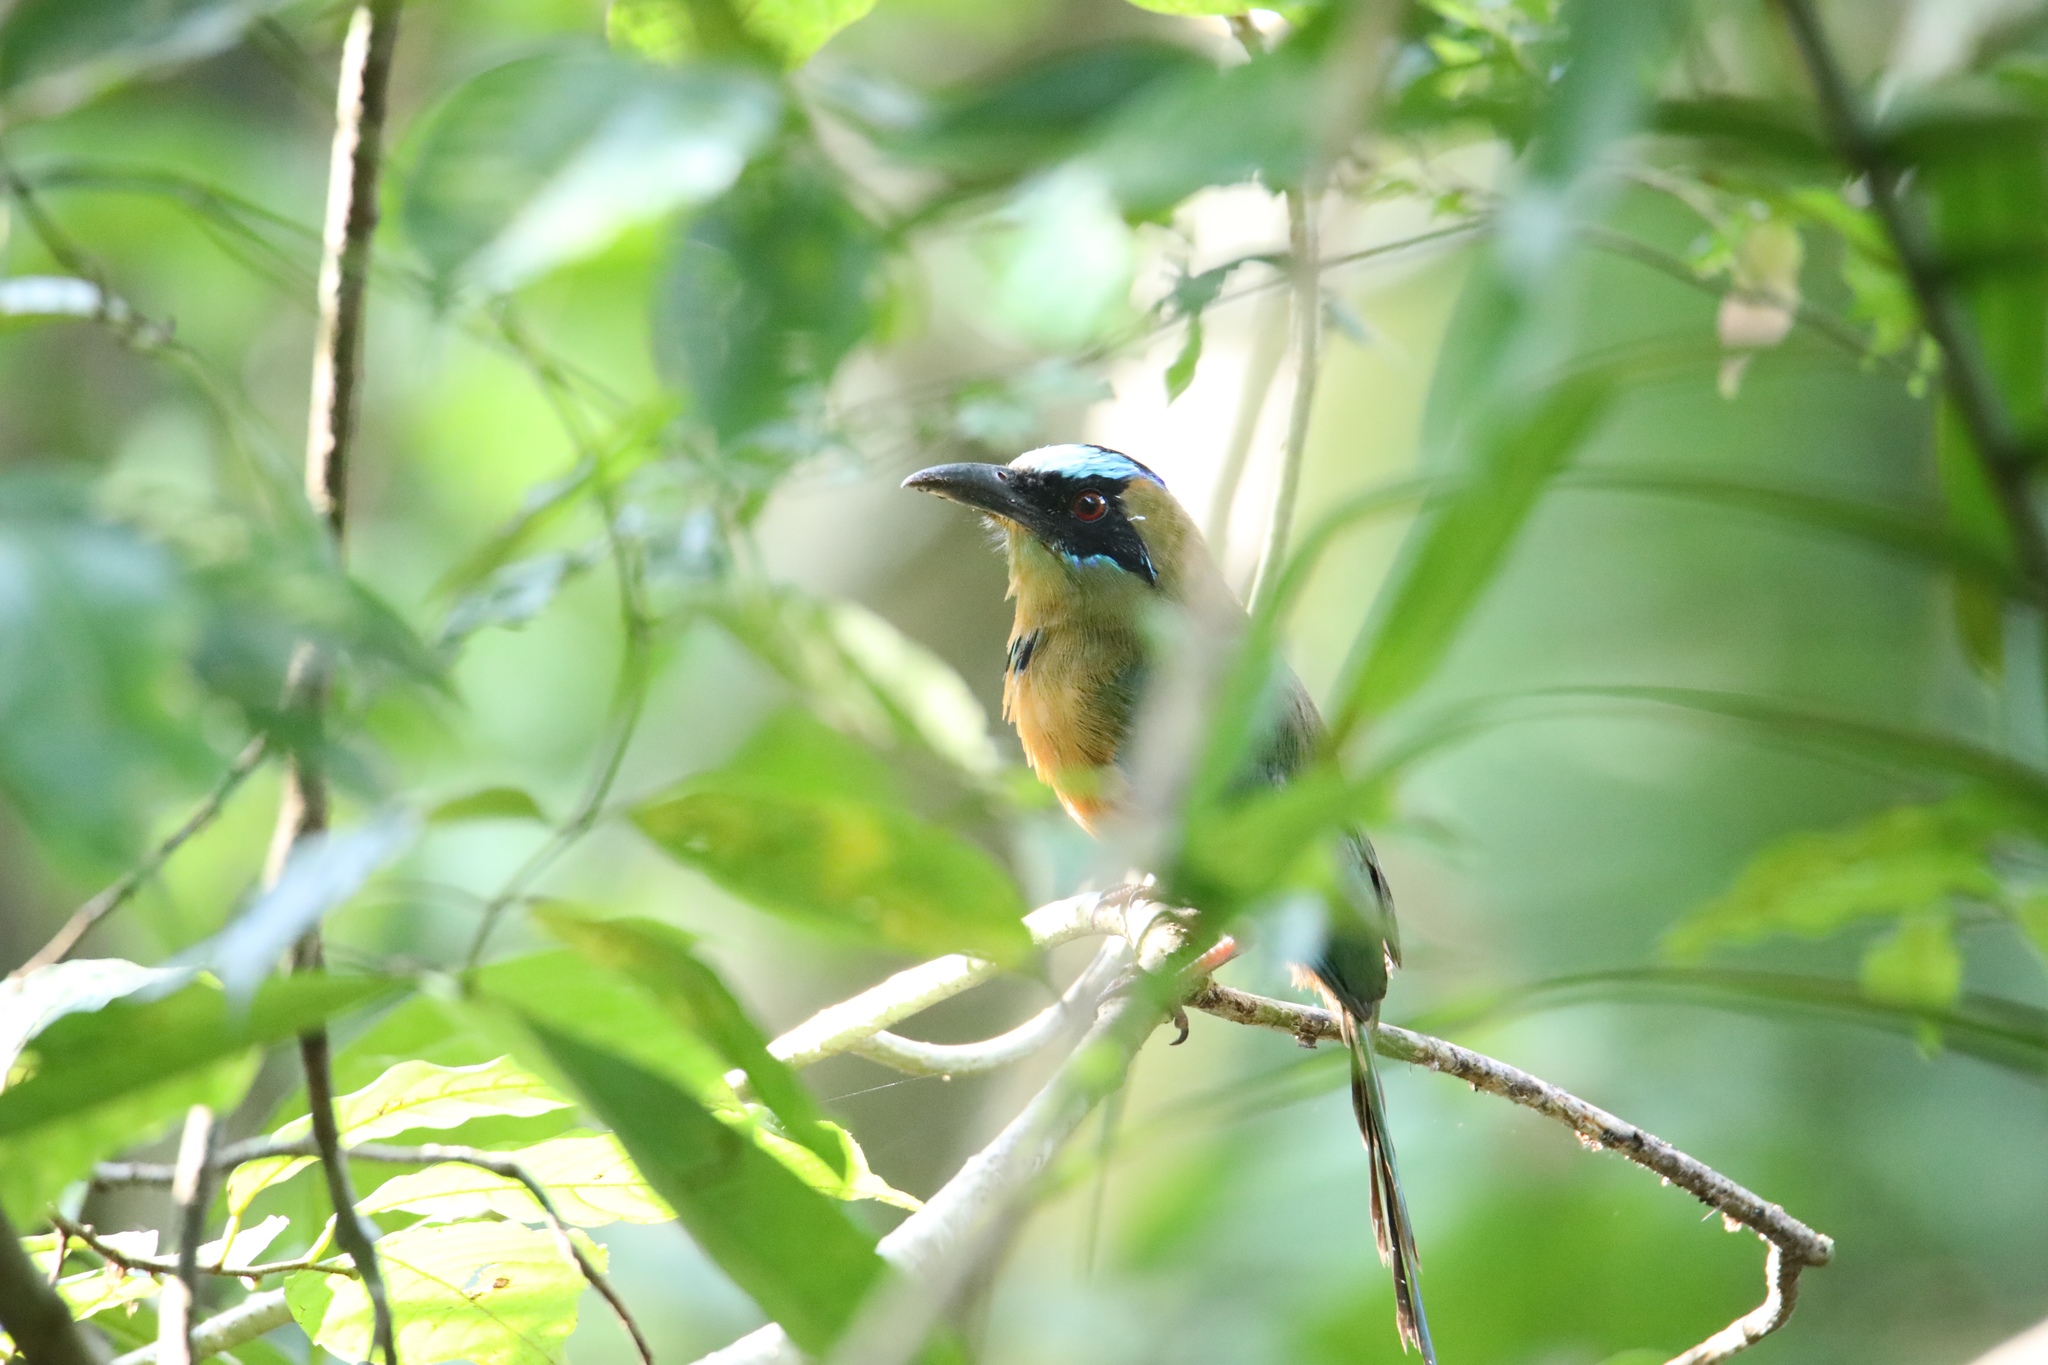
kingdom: Animalia
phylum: Chordata
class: Aves
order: Coraciiformes
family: Momotidae
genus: Momotus
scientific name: Momotus subrufescens
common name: Whooping motmot
